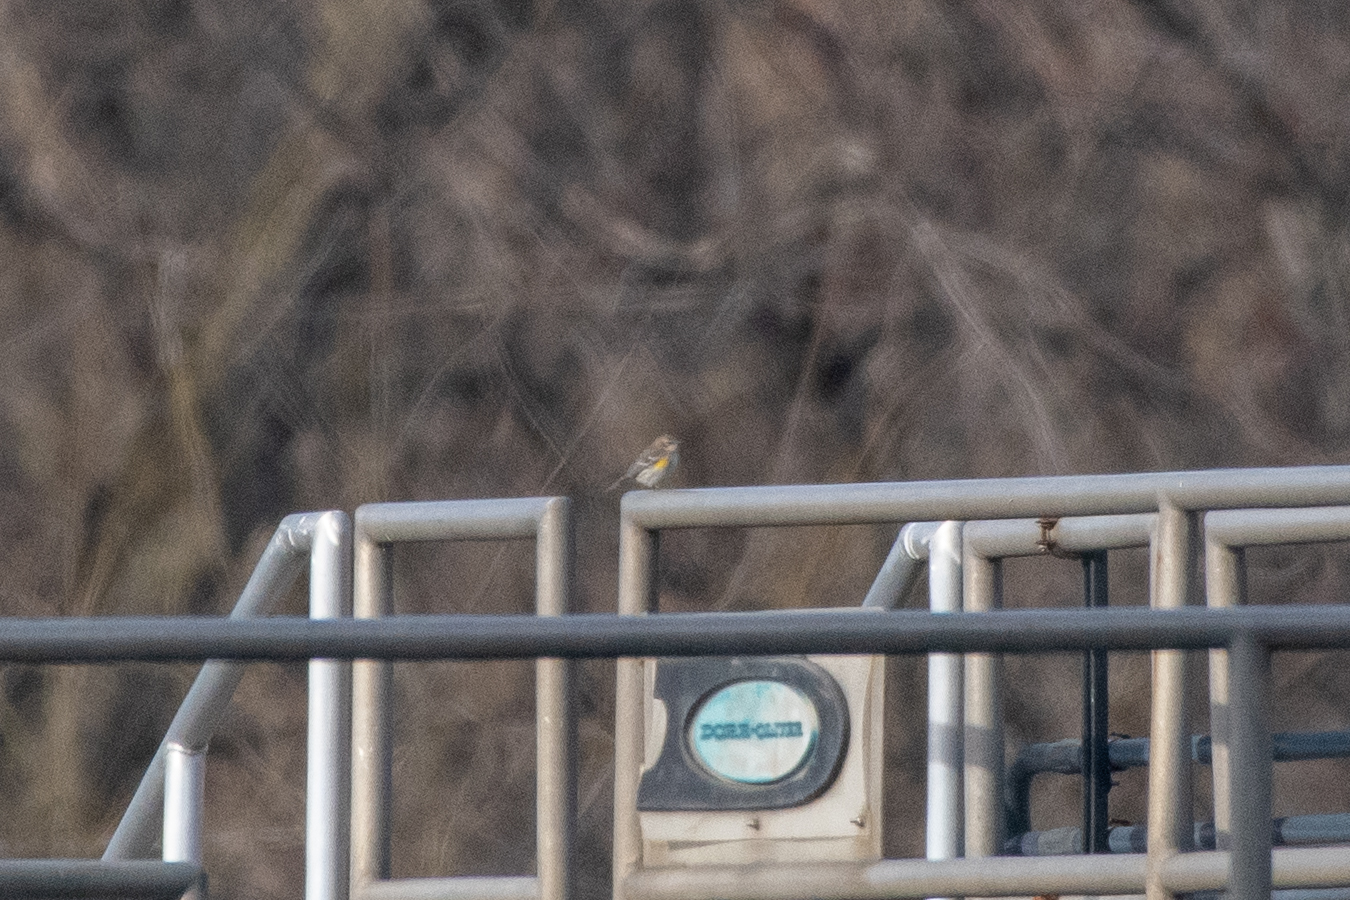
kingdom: Animalia
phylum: Chordata
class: Aves
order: Passeriformes
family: Parulidae
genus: Setophaga
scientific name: Setophaga coronata
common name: Myrtle warbler
